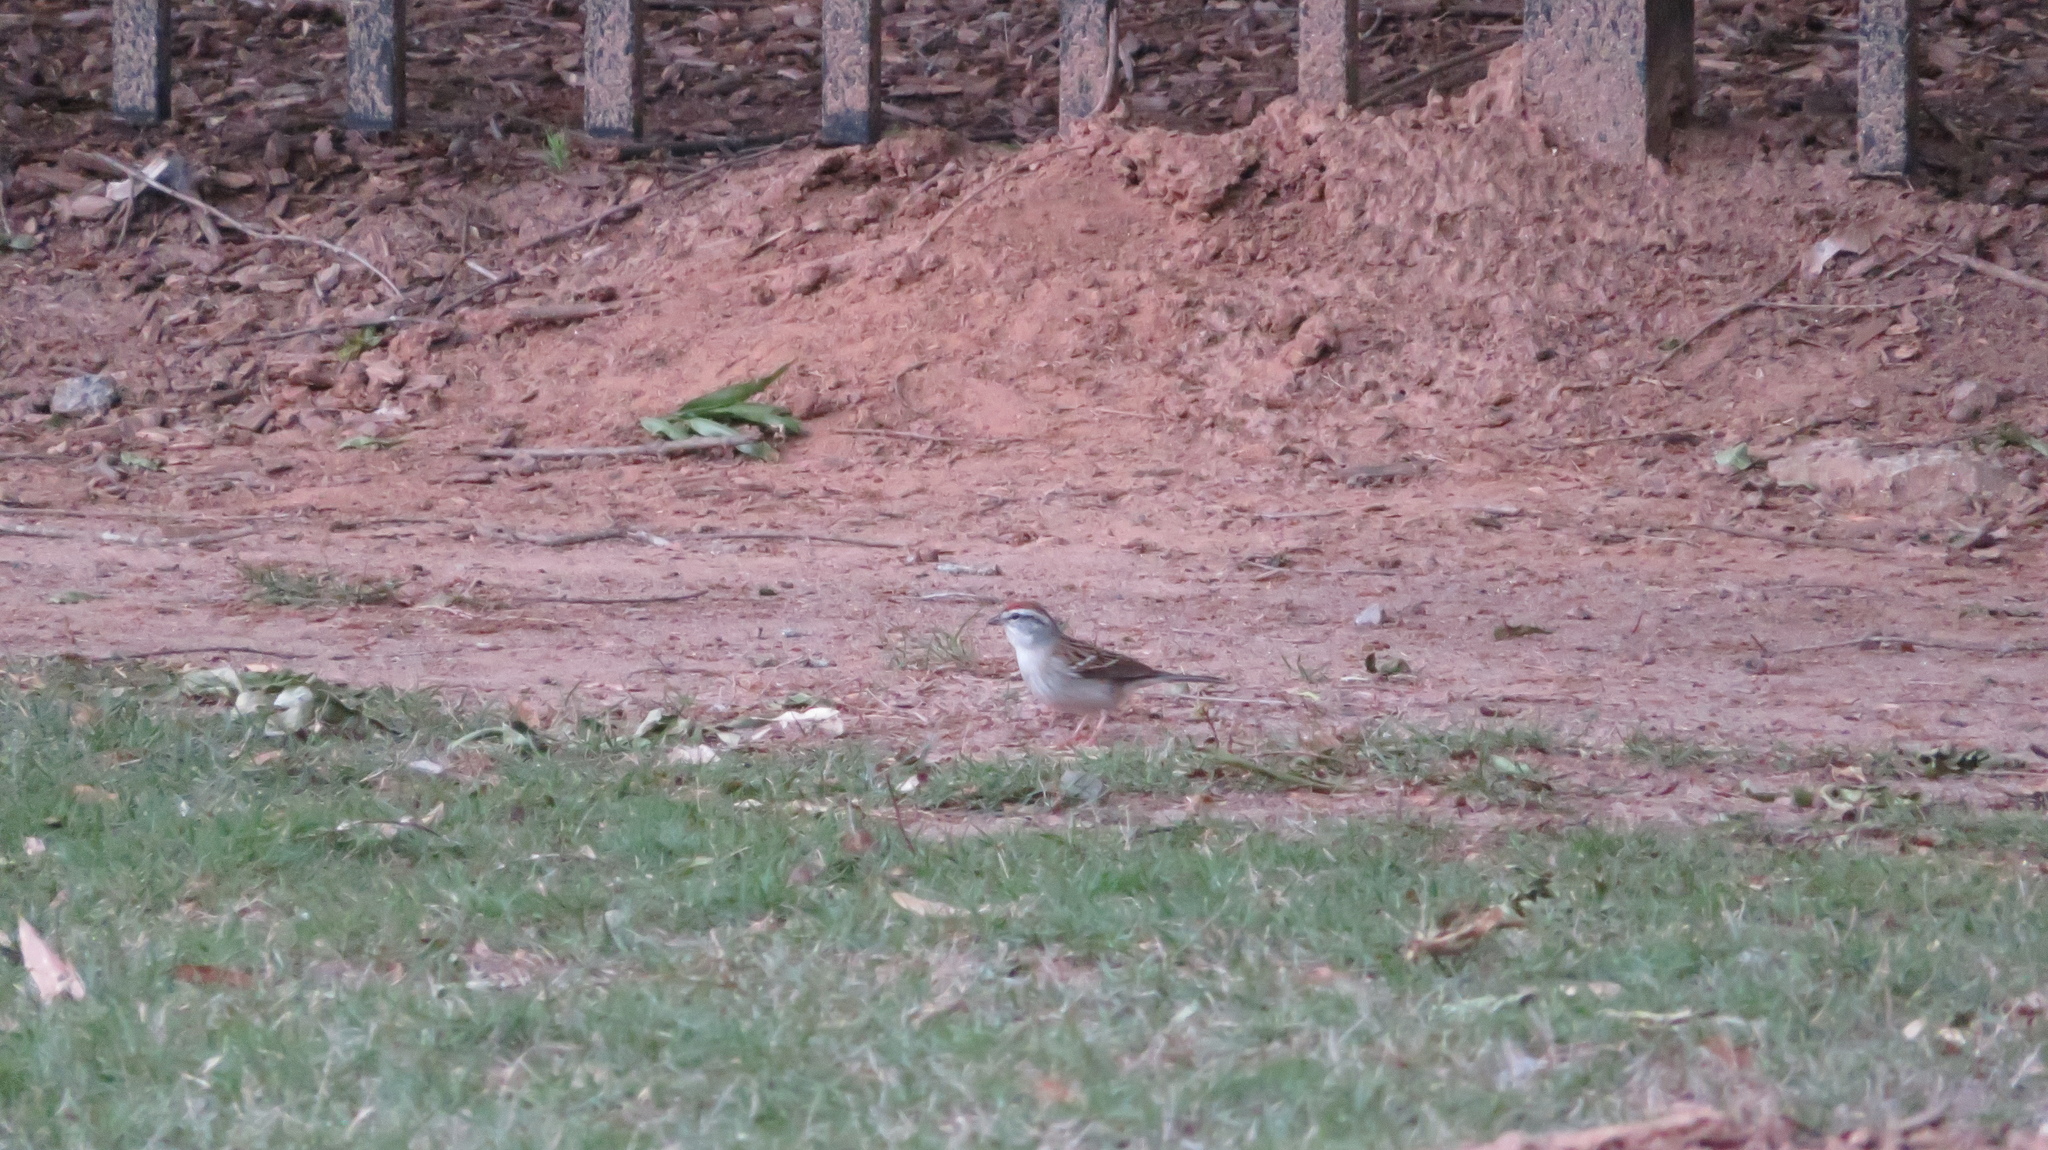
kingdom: Animalia
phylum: Chordata
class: Aves
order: Passeriformes
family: Passerellidae
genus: Spizella
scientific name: Spizella passerina
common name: Chipping sparrow
